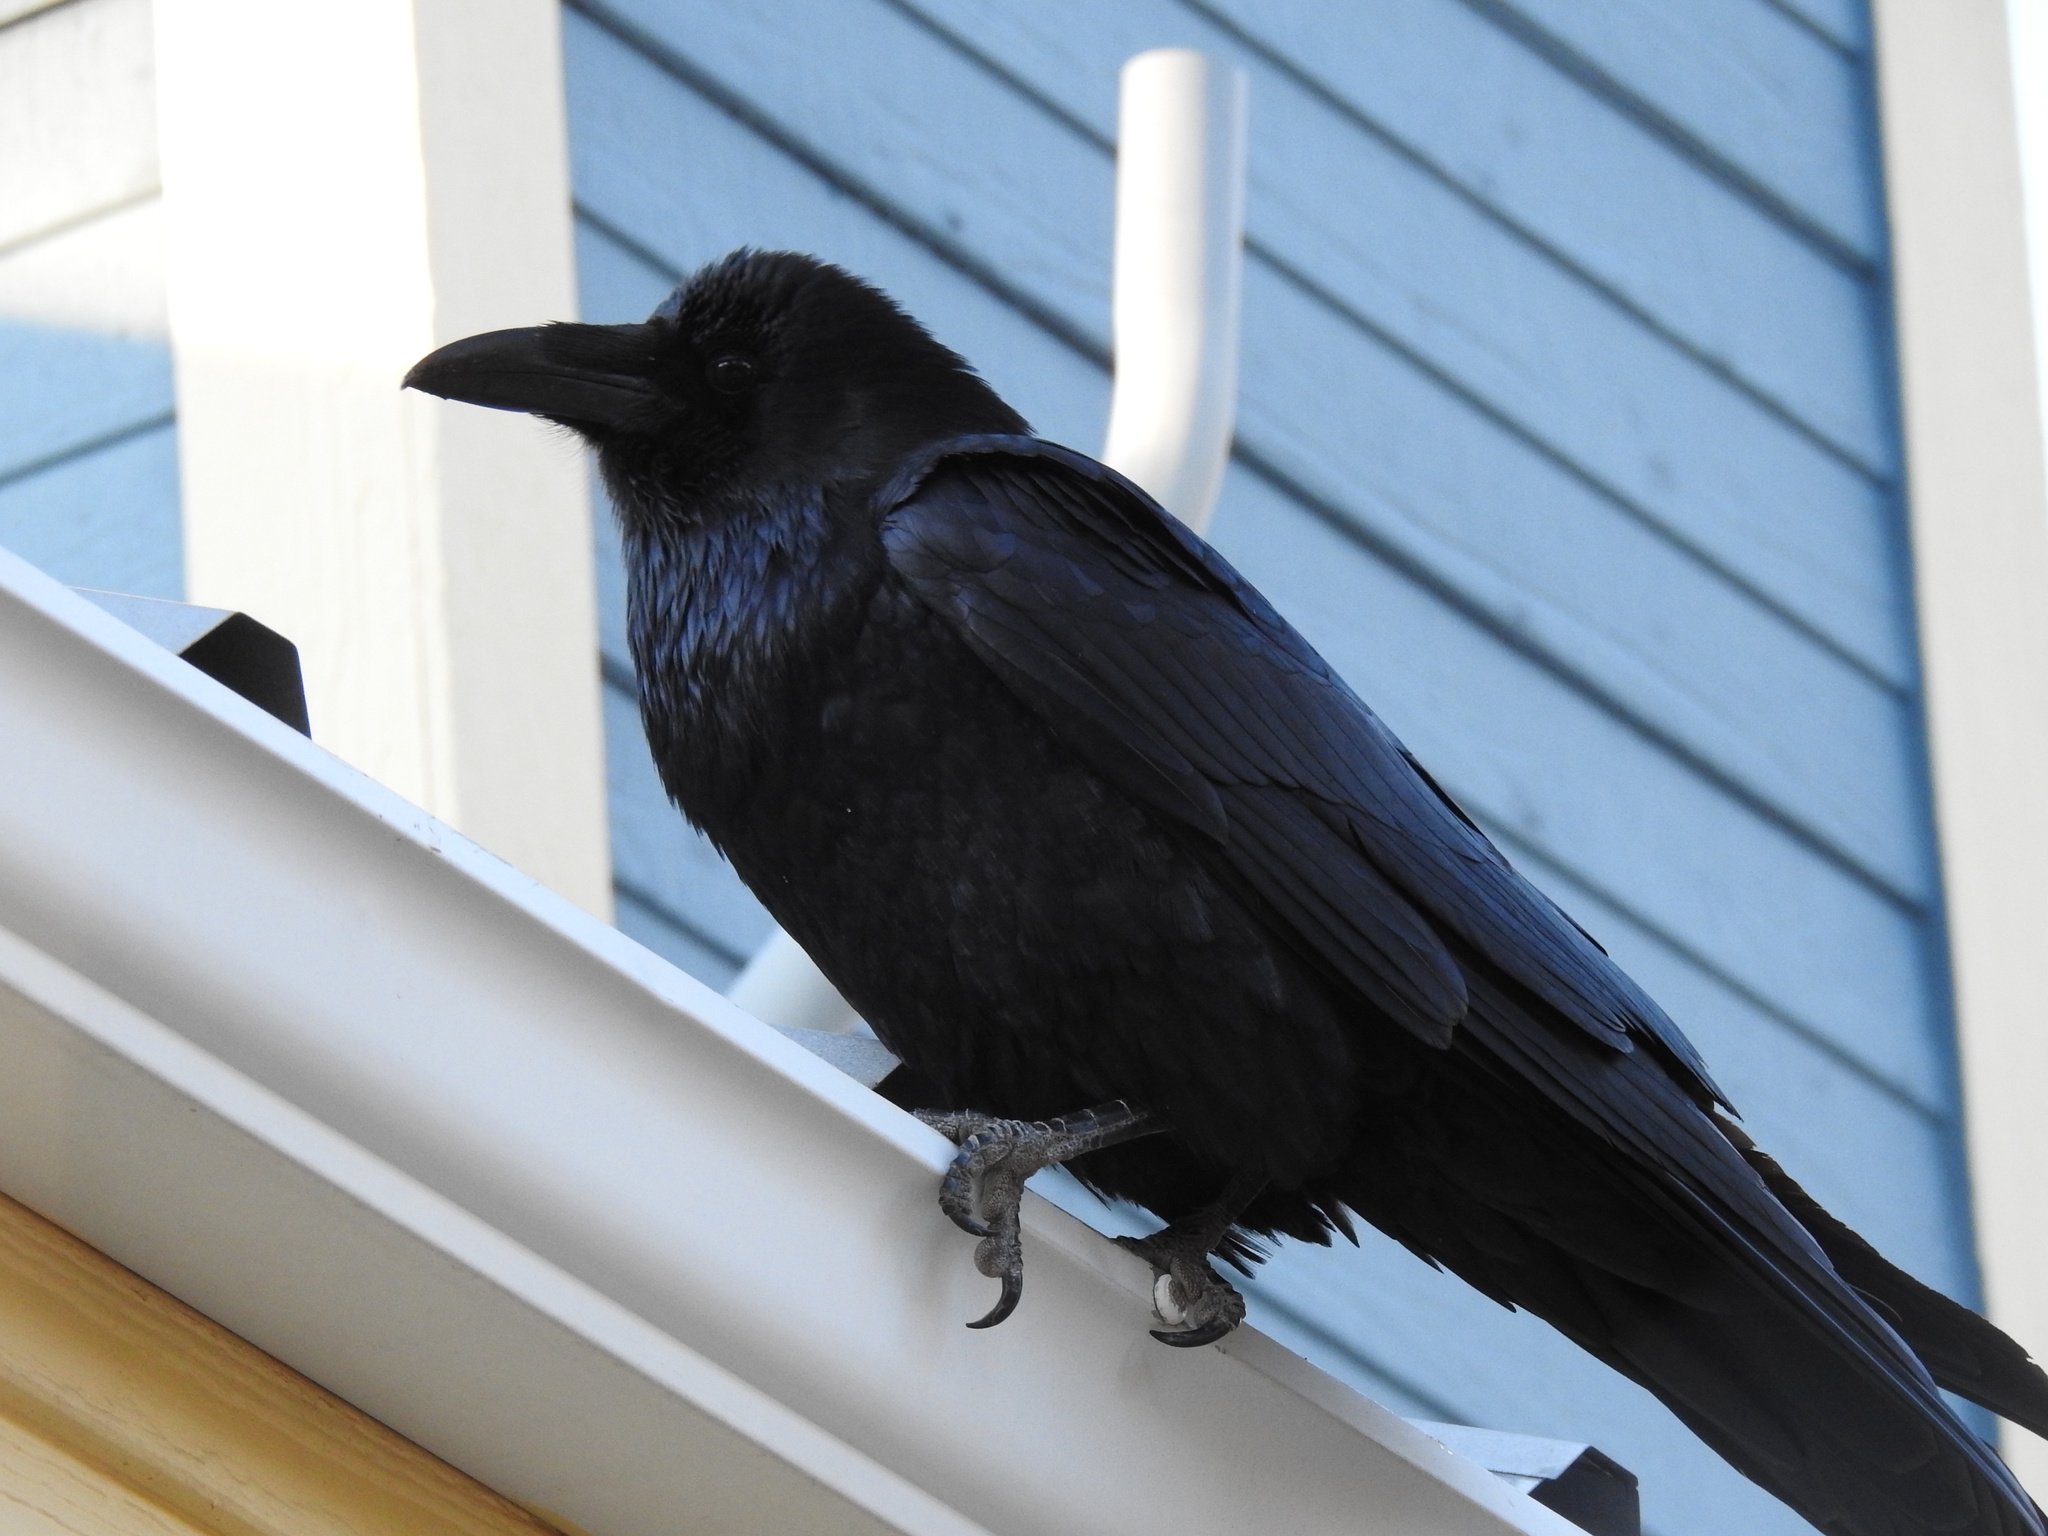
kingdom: Animalia
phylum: Chordata
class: Aves
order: Passeriformes
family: Corvidae
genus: Corvus
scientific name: Corvus corax
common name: Common raven
